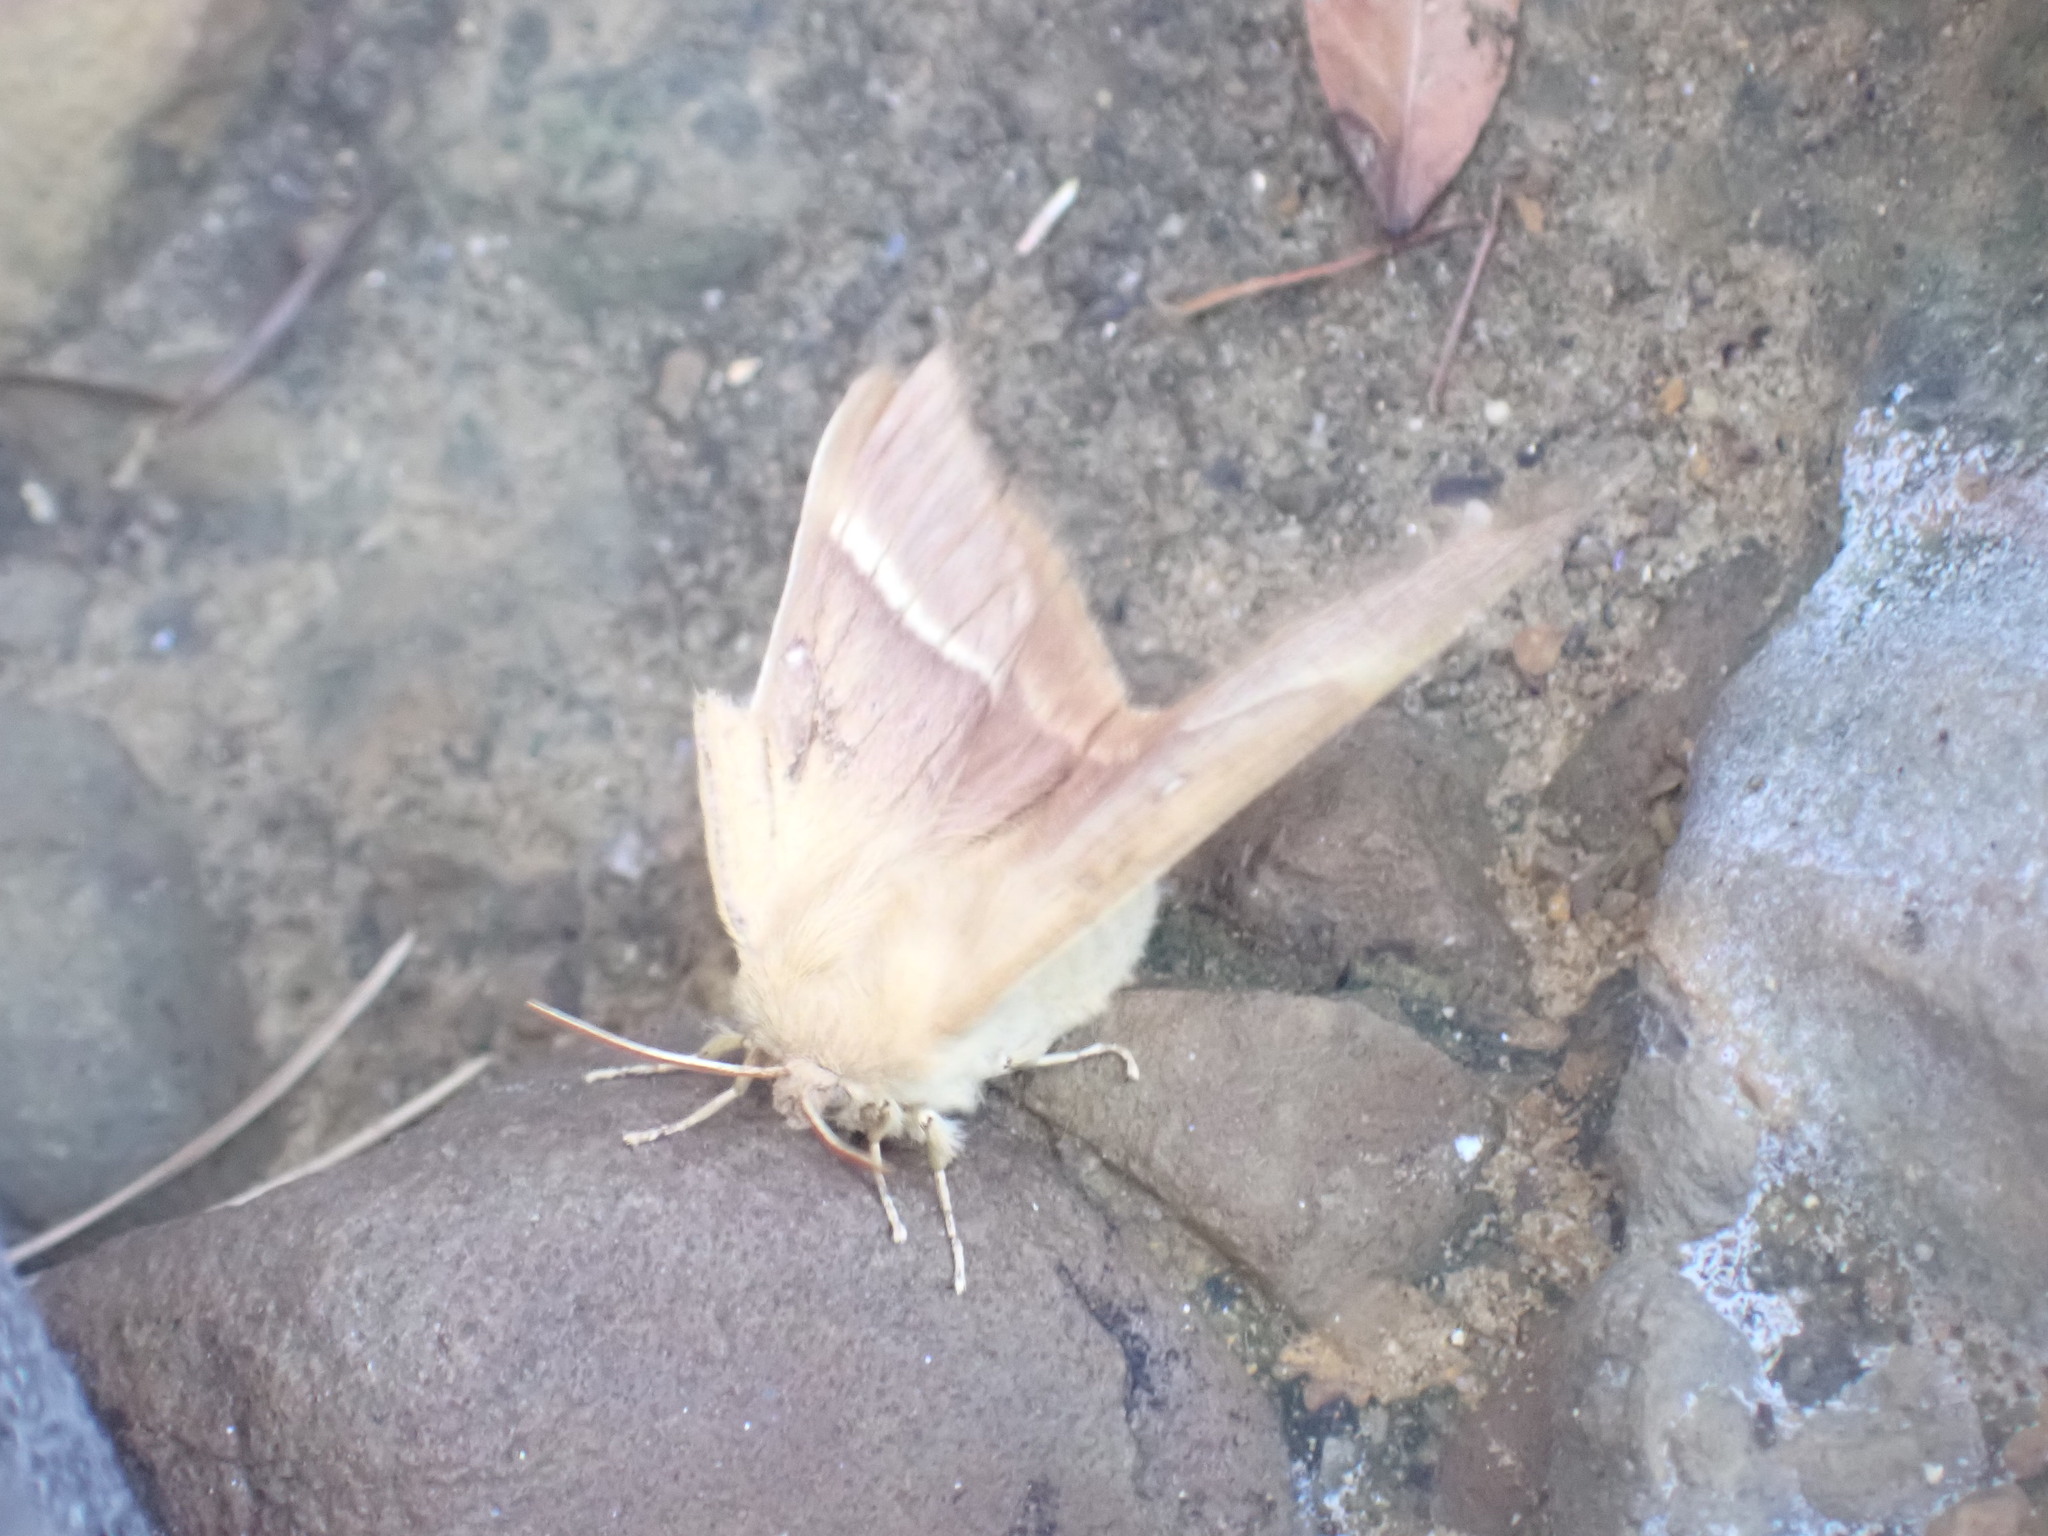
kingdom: Animalia
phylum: Arthropoda
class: Insecta
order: Lepidoptera
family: Lasiocampidae
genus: Lasiocampa
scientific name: Lasiocampa quercus
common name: Oak eggar
